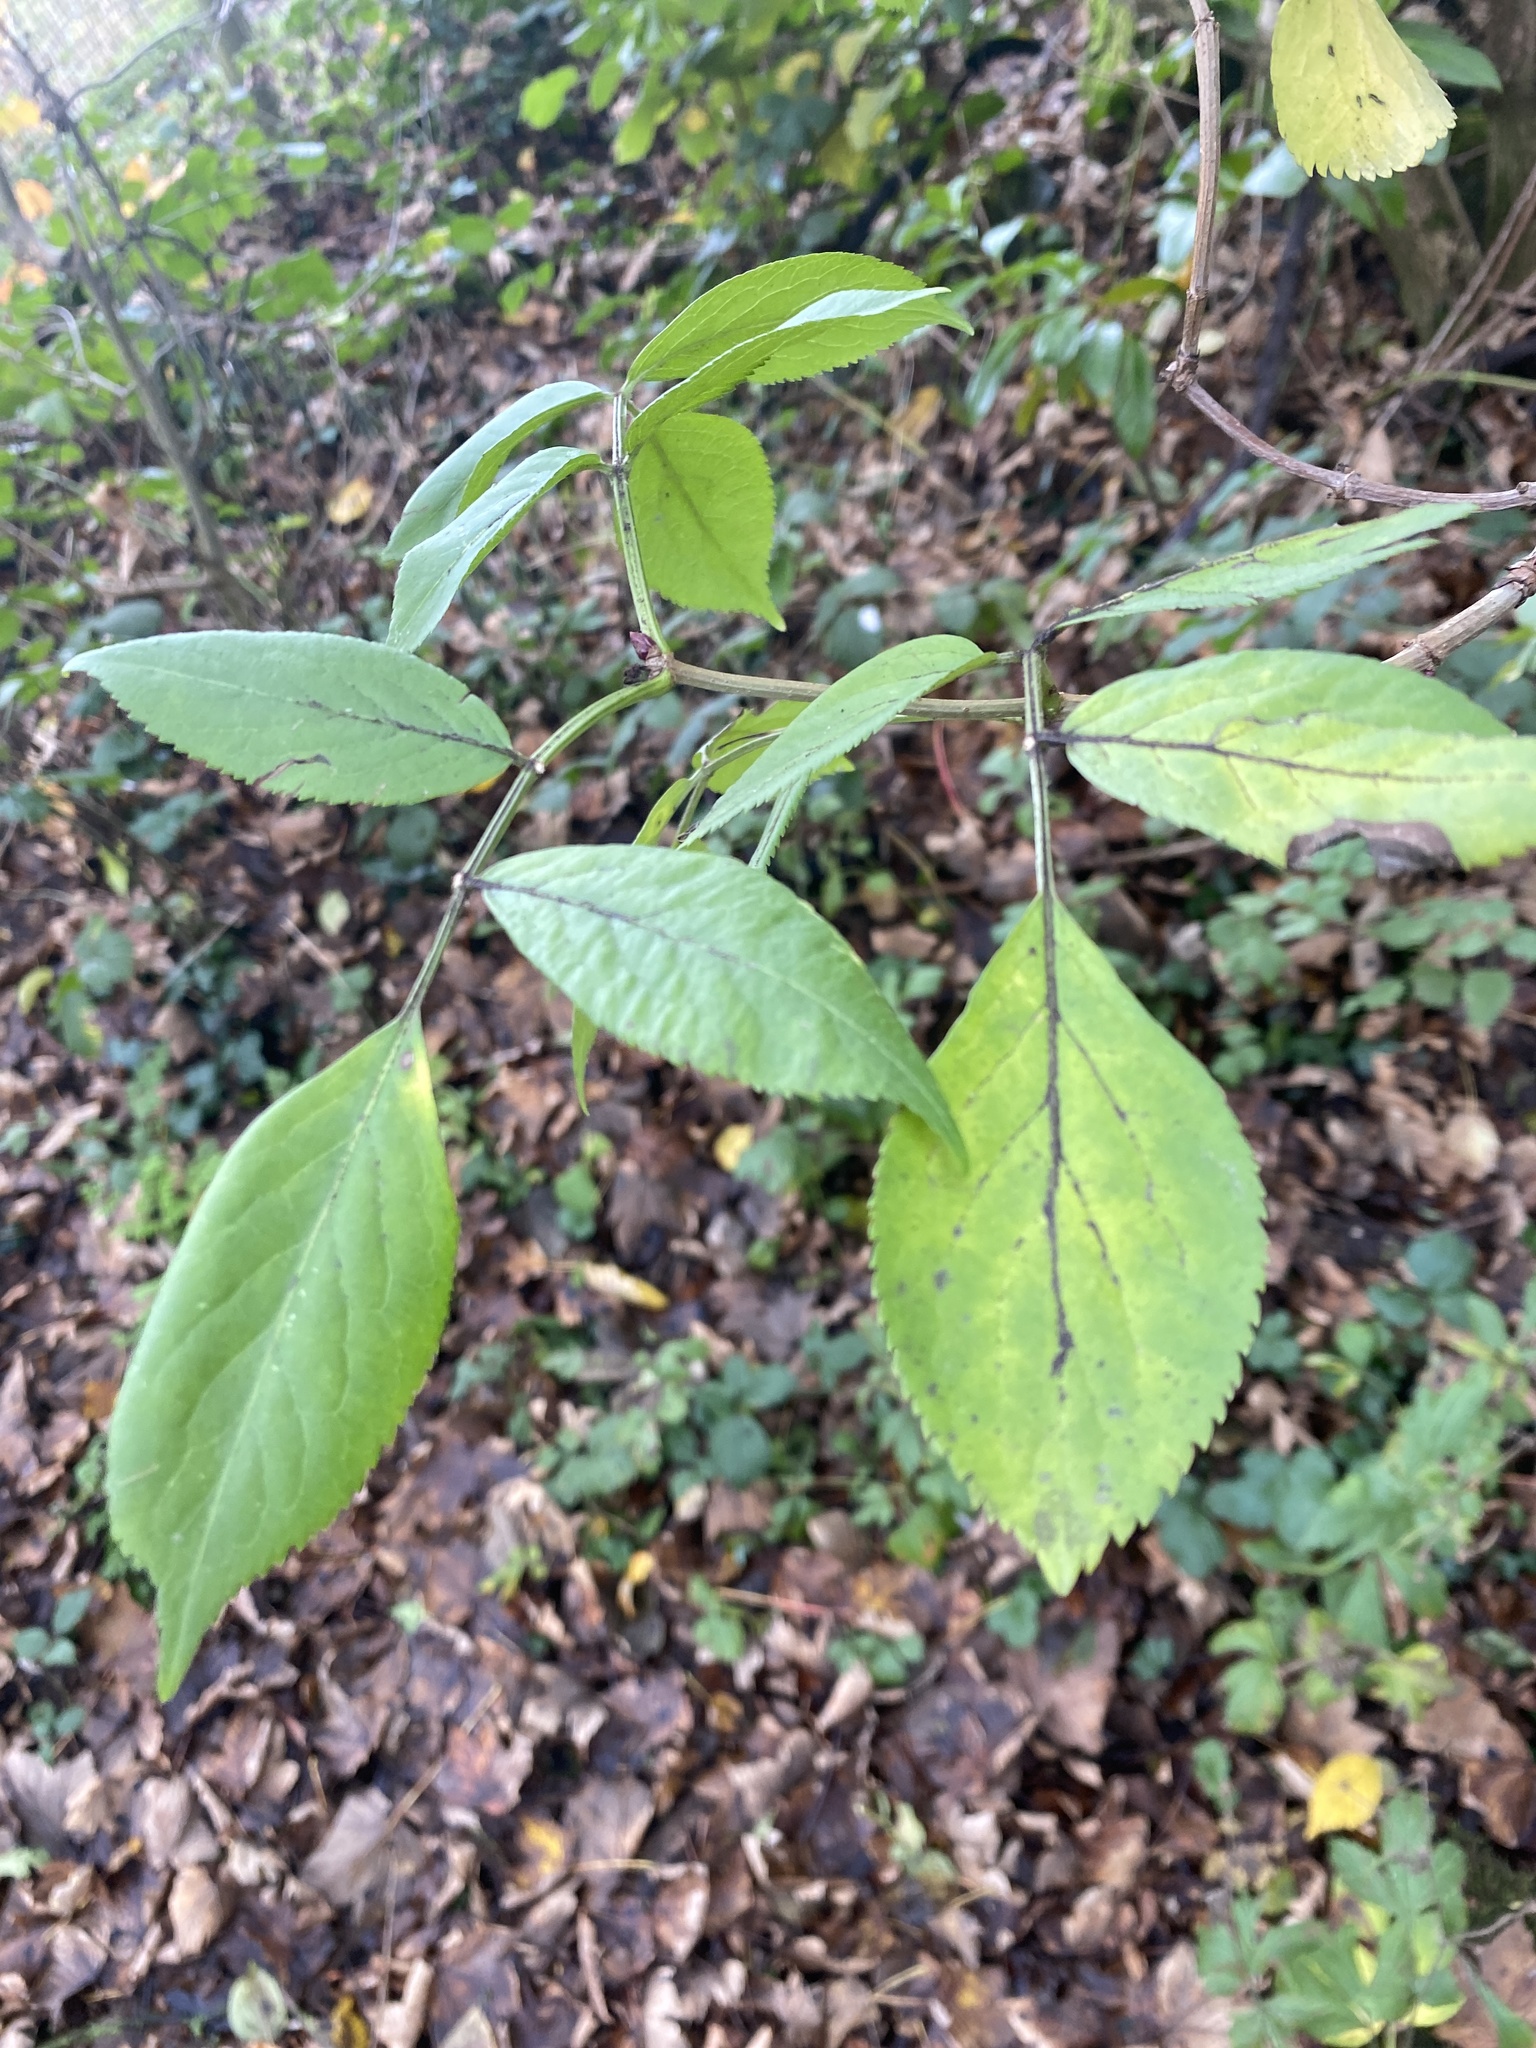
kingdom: Plantae
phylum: Tracheophyta
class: Magnoliopsida
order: Dipsacales
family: Viburnaceae
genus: Sambucus
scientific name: Sambucus nigra
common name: Elder
